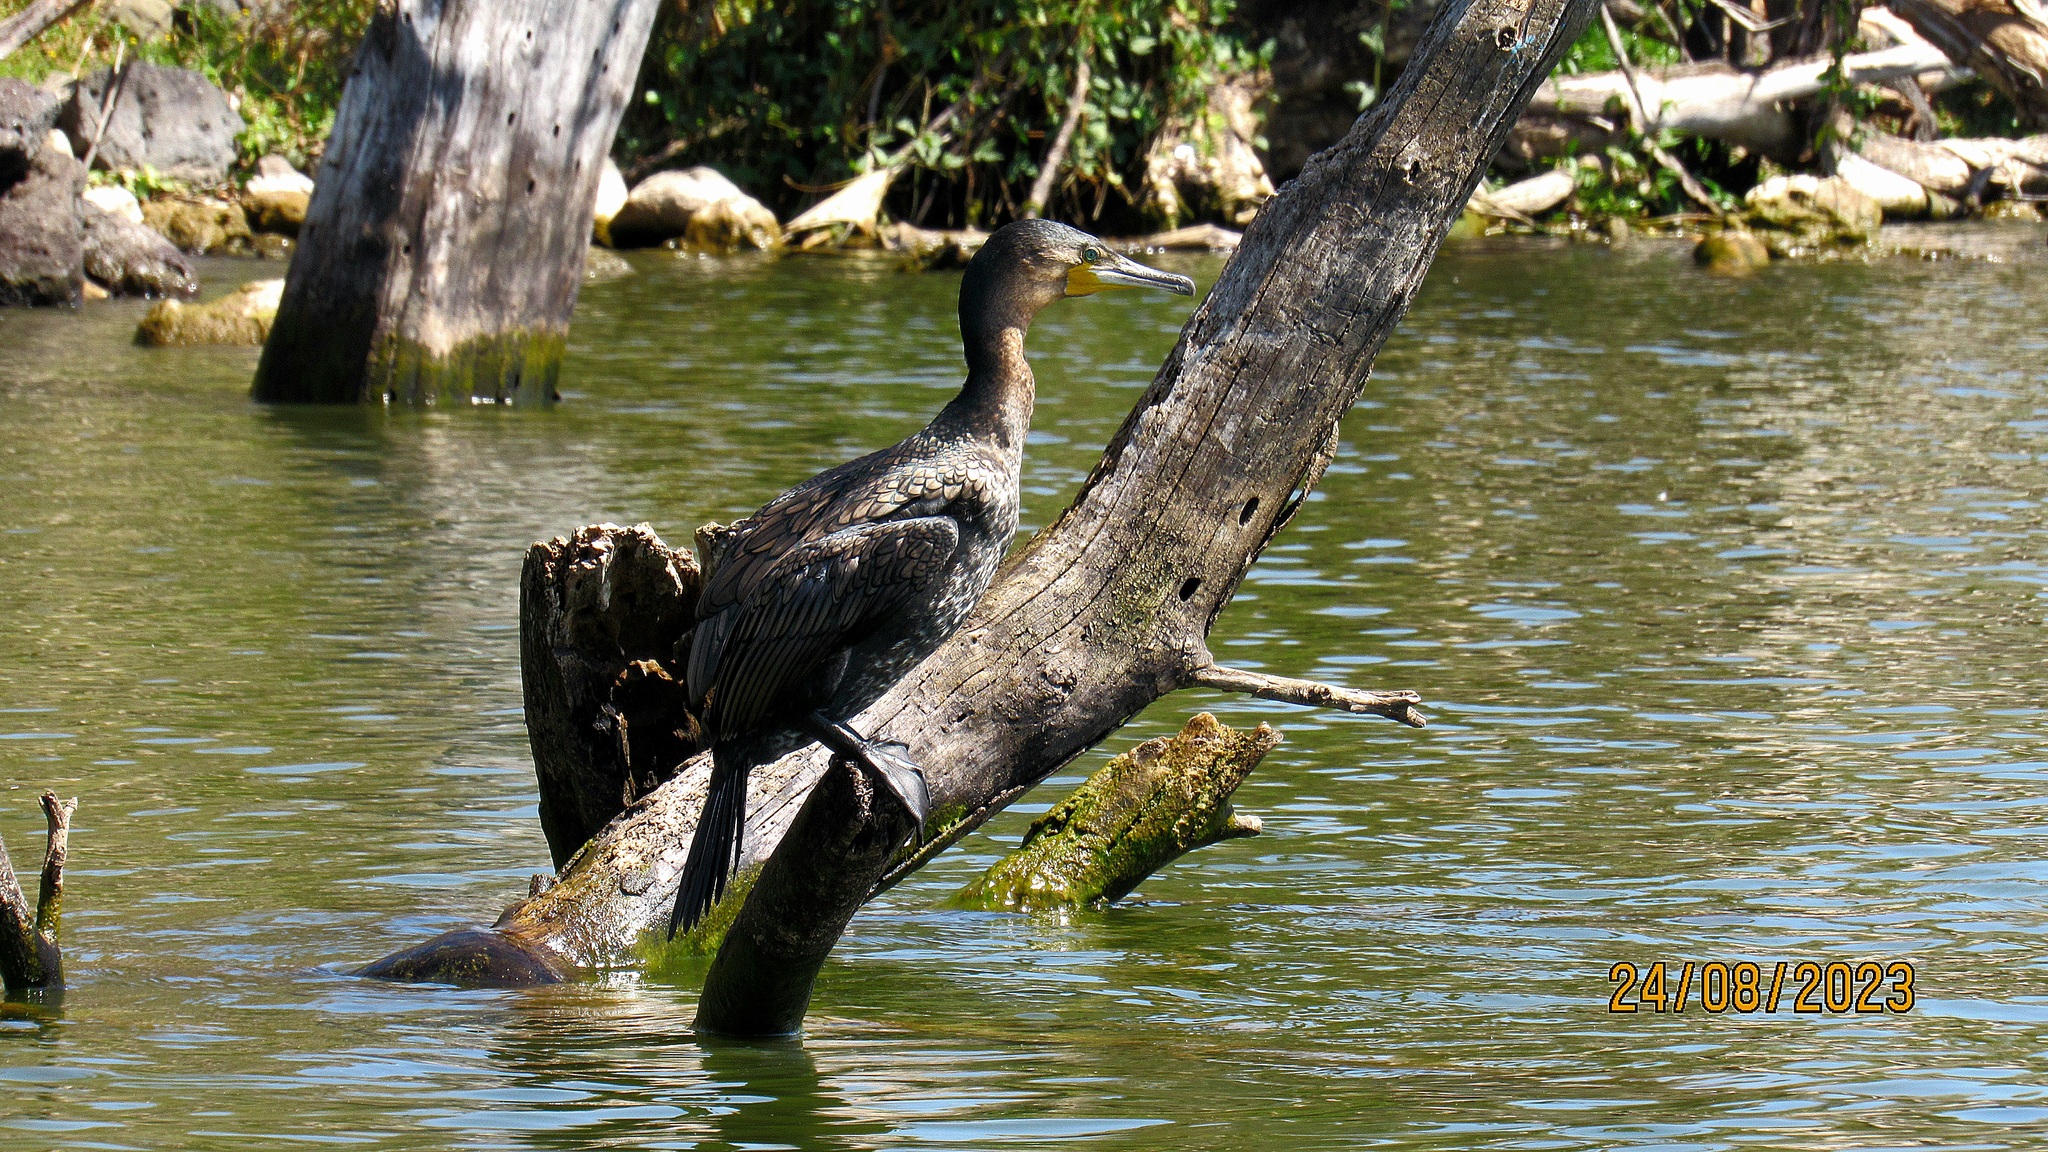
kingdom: Animalia
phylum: Chordata
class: Aves
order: Suliformes
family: Phalacrocoracidae
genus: Phalacrocorax
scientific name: Phalacrocorax carbo
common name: Great cormorant
